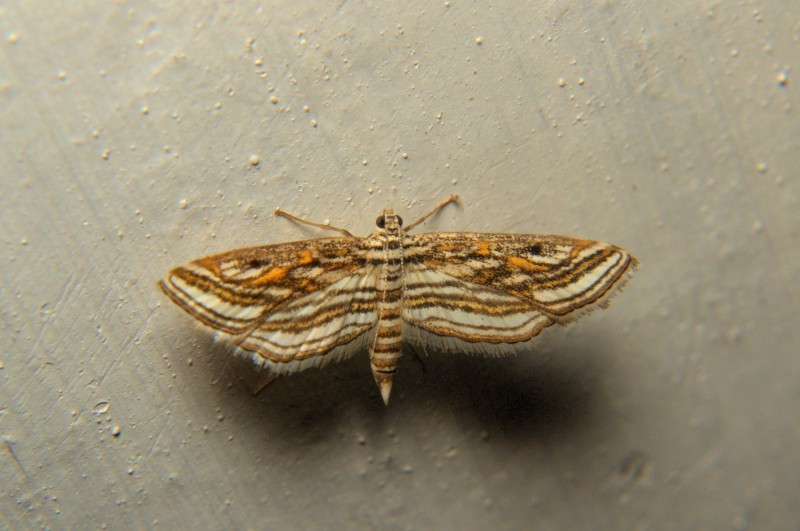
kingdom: Animalia
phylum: Arthropoda
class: Insecta
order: Lepidoptera
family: Crambidae
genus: Parapoynx
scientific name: Parapoynx fluctuosalis
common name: Moth
